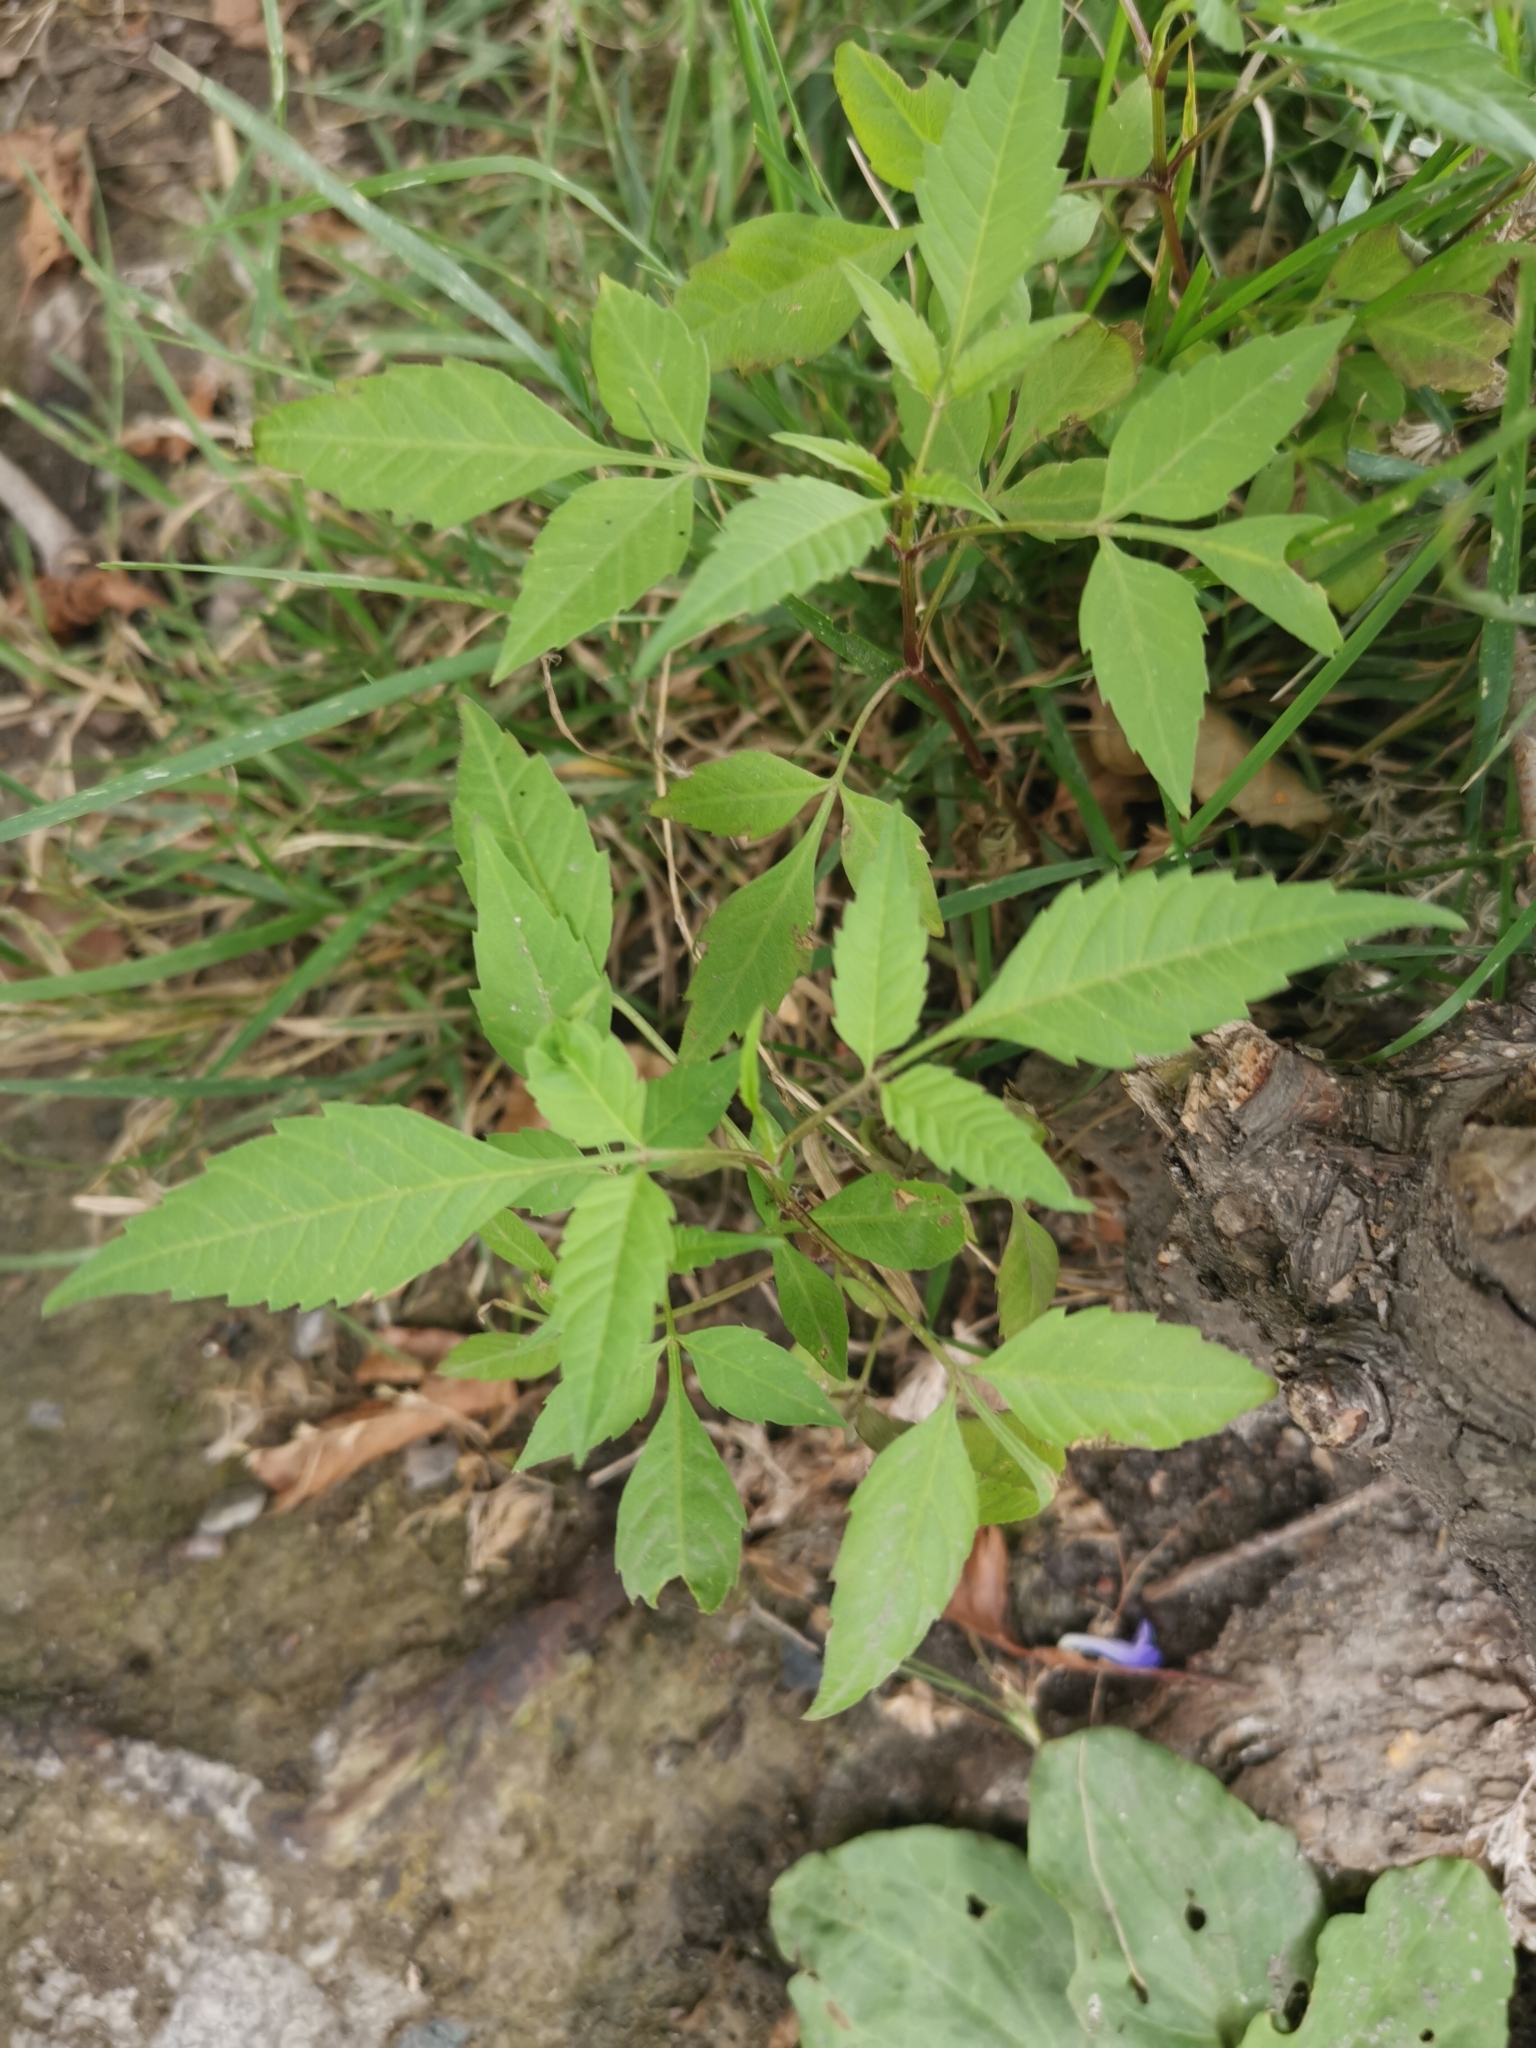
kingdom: Plantae
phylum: Tracheophyta
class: Magnoliopsida
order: Asterales
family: Asteraceae
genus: Bidens
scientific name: Bidens frondosa
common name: Beggarticks
